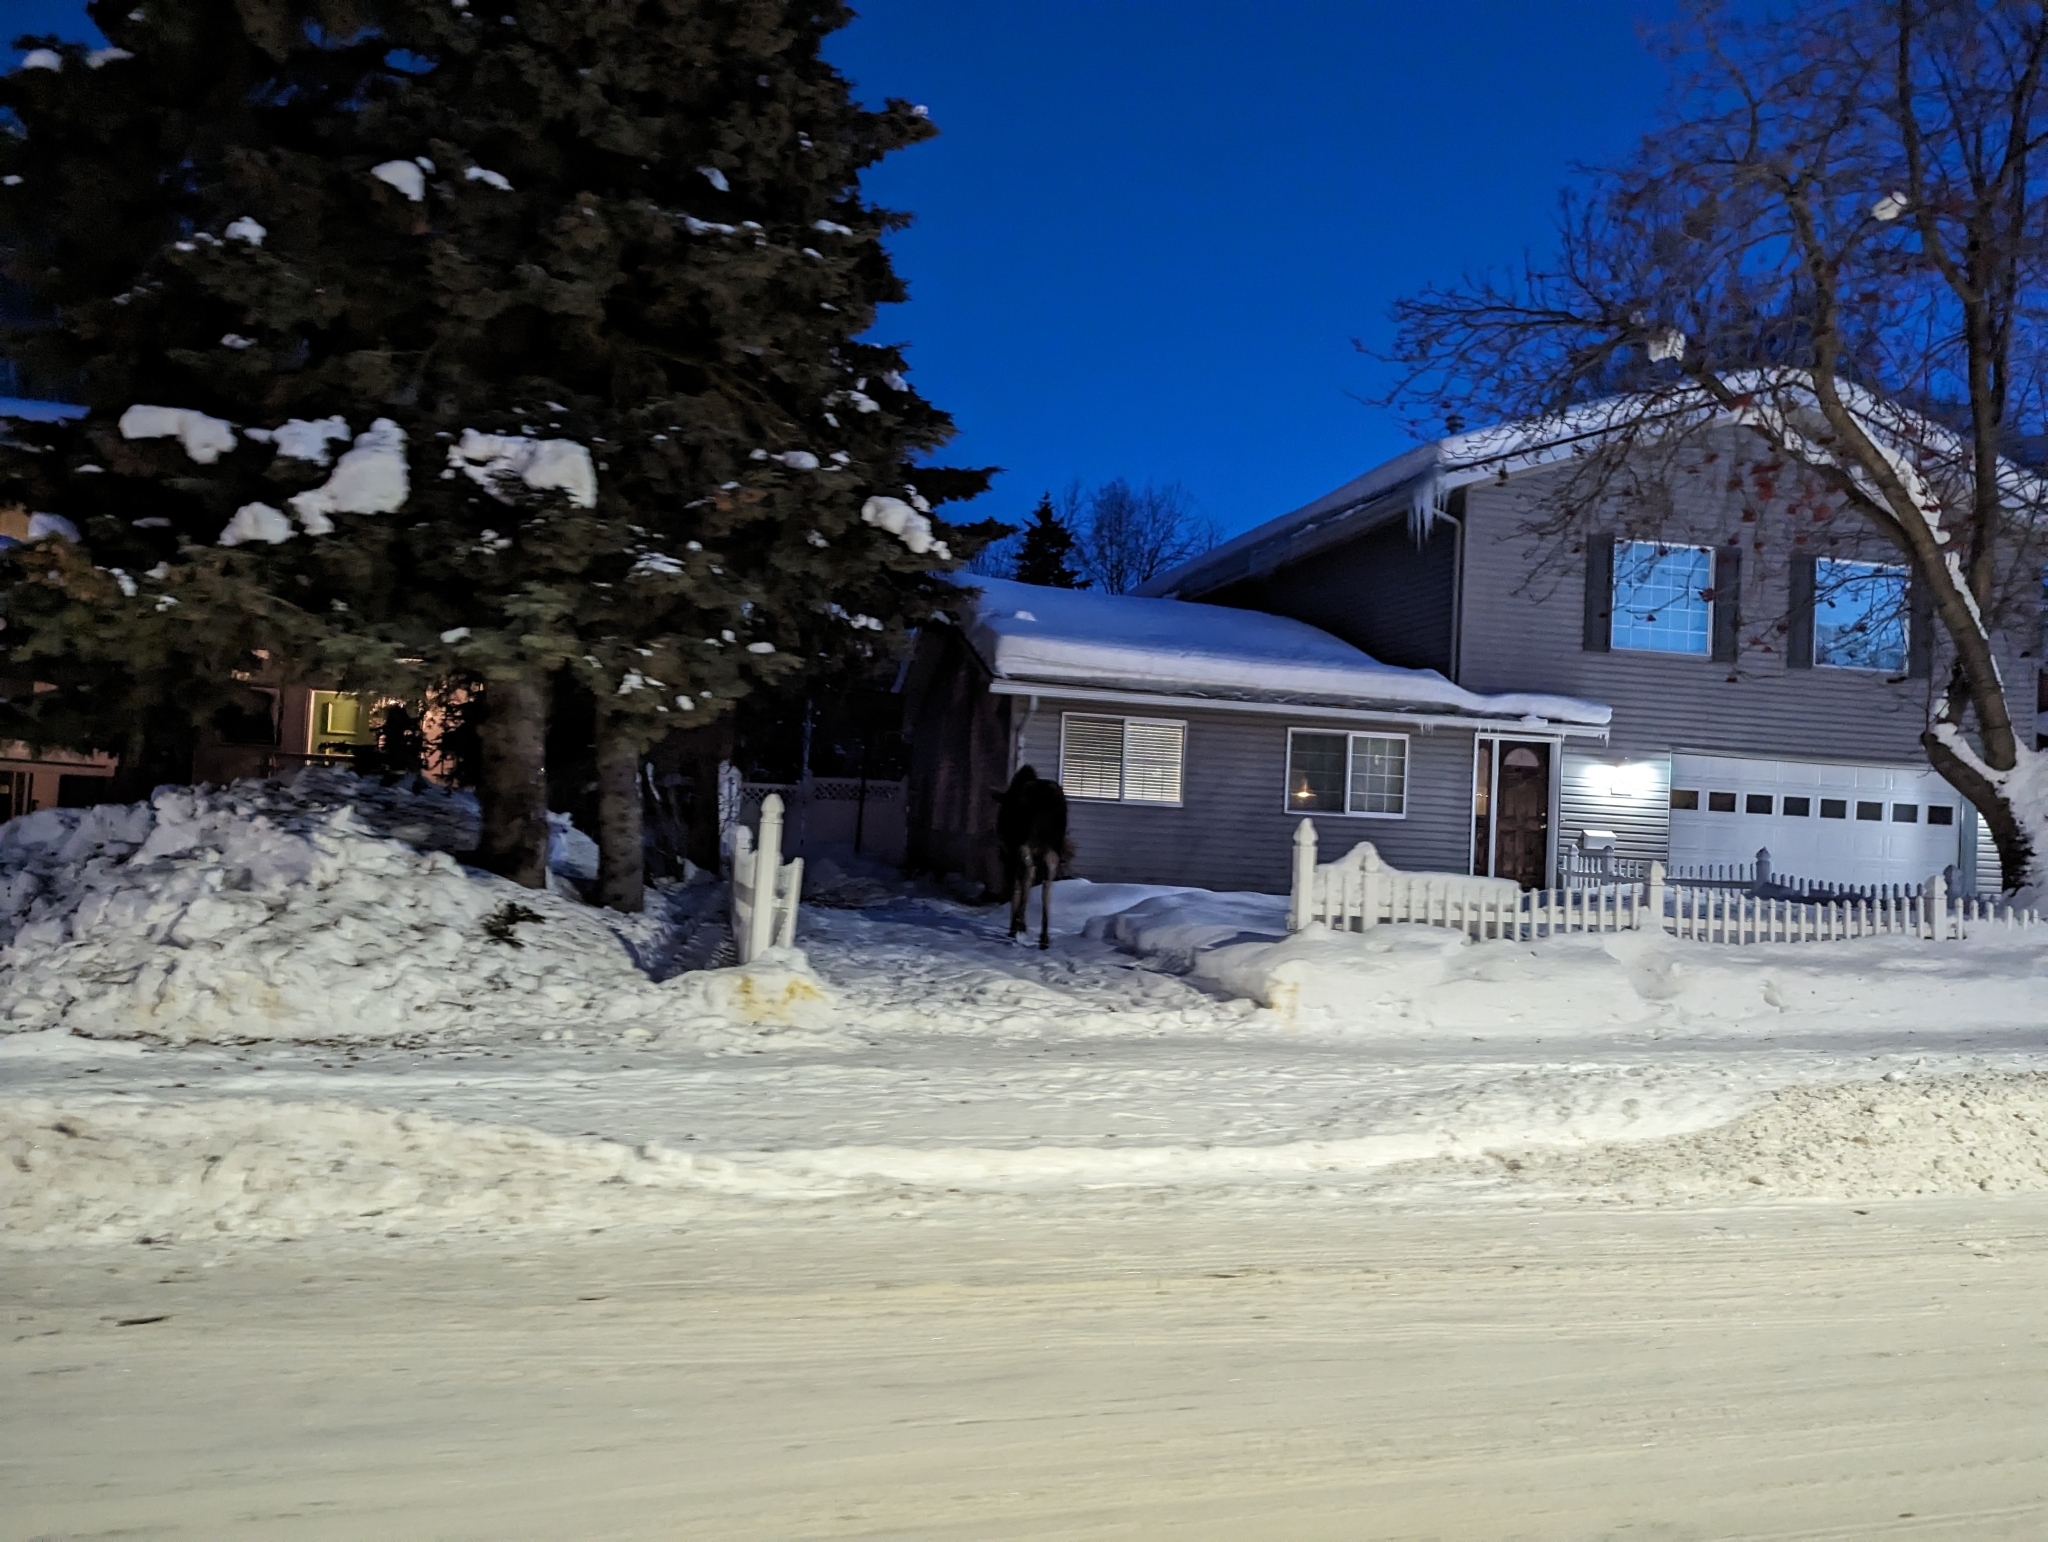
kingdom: Animalia
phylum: Chordata
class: Mammalia
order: Artiodactyla
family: Cervidae
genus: Alces
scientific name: Alces alces
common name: Moose
